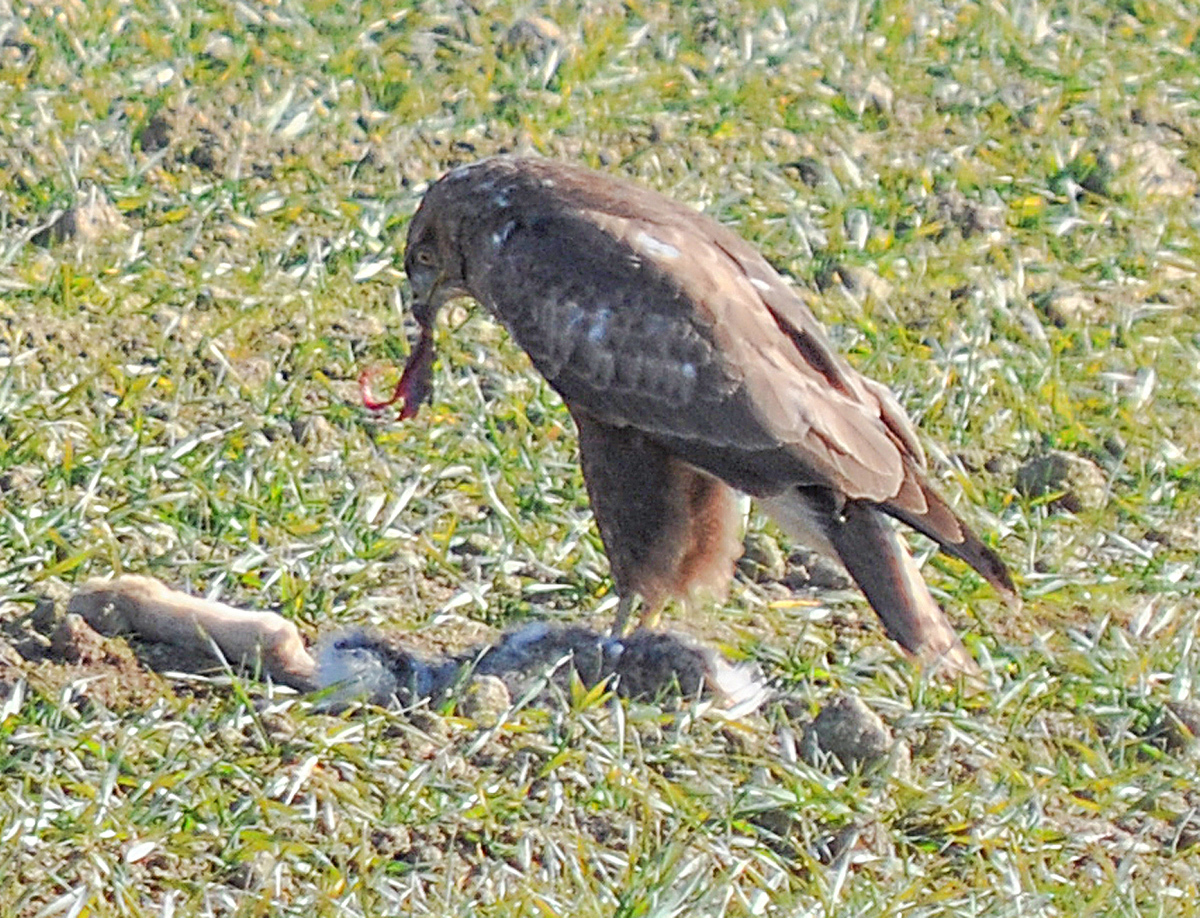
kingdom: Animalia
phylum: Chordata
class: Aves
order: Accipitriformes
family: Accipitridae
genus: Buteo
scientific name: Buteo buteo
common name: Common buzzard
